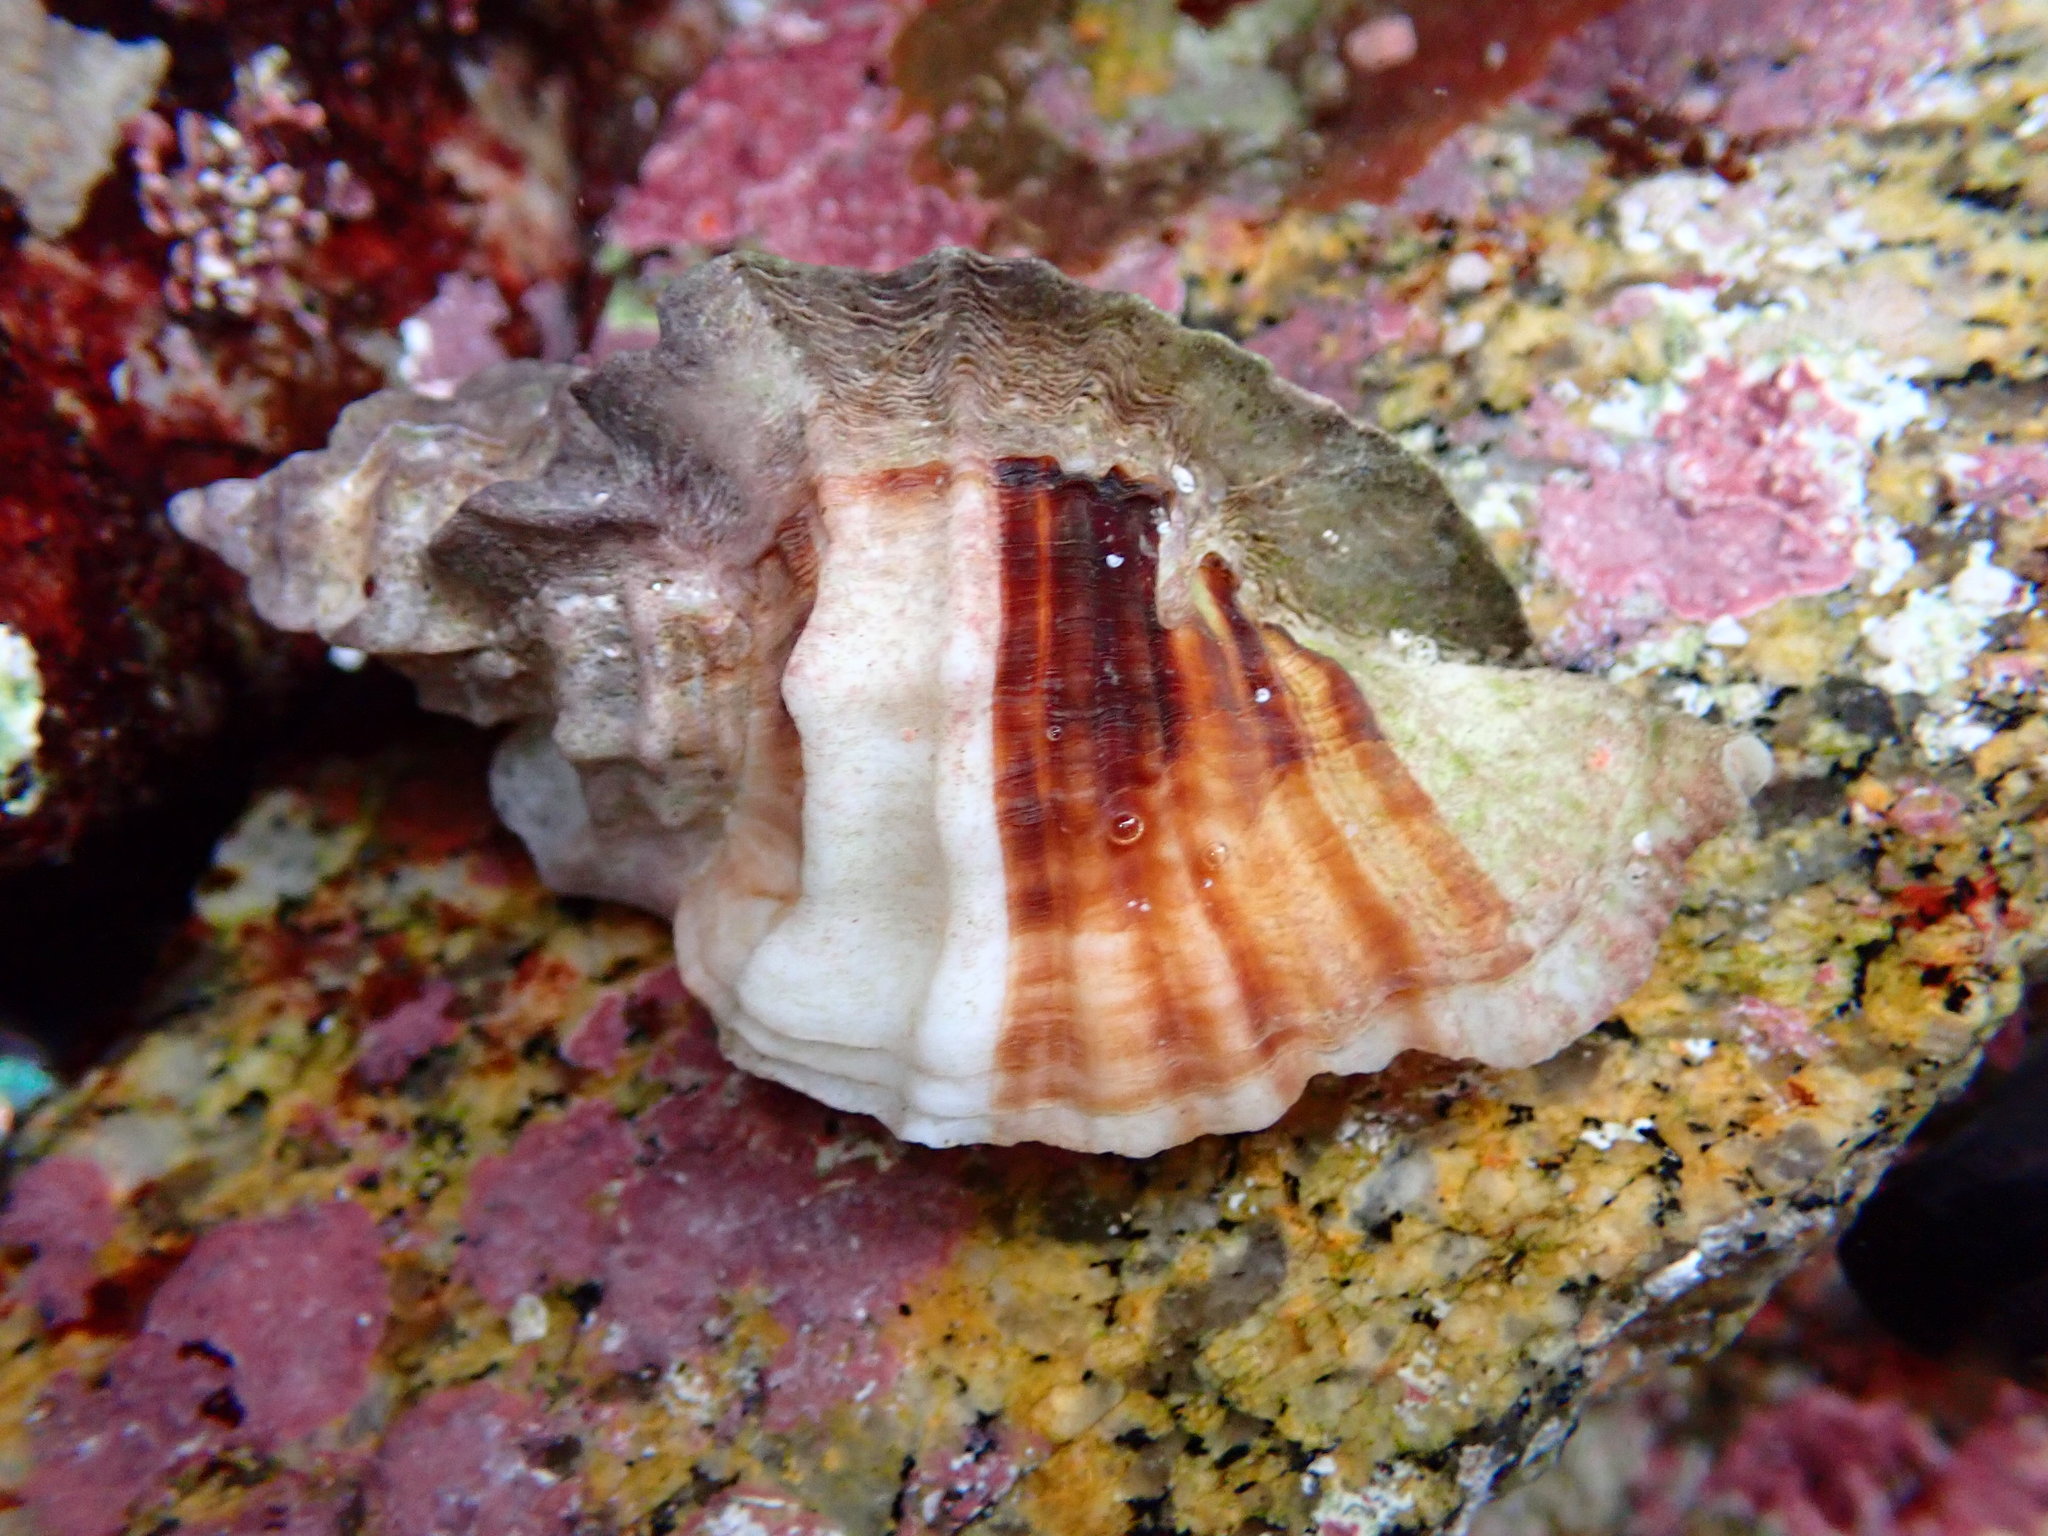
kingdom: Animalia
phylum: Mollusca
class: Gastropoda
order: Neogastropoda
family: Muricidae
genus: Ceratostoma
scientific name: Ceratostoma foliatum
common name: Foliate thorn purpura
